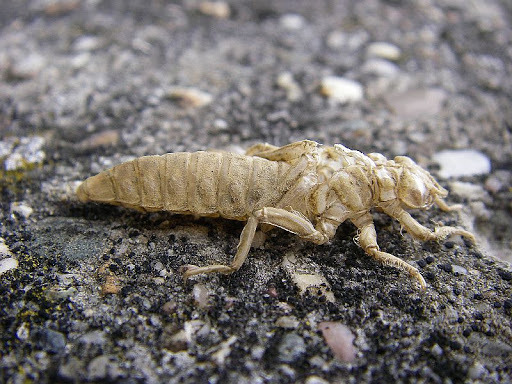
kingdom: Animalia
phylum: Arthropoda
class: Insecta
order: Odonata
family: Gomphidae
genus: Stylurus
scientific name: Stylurus flavipes
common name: River clubtail
